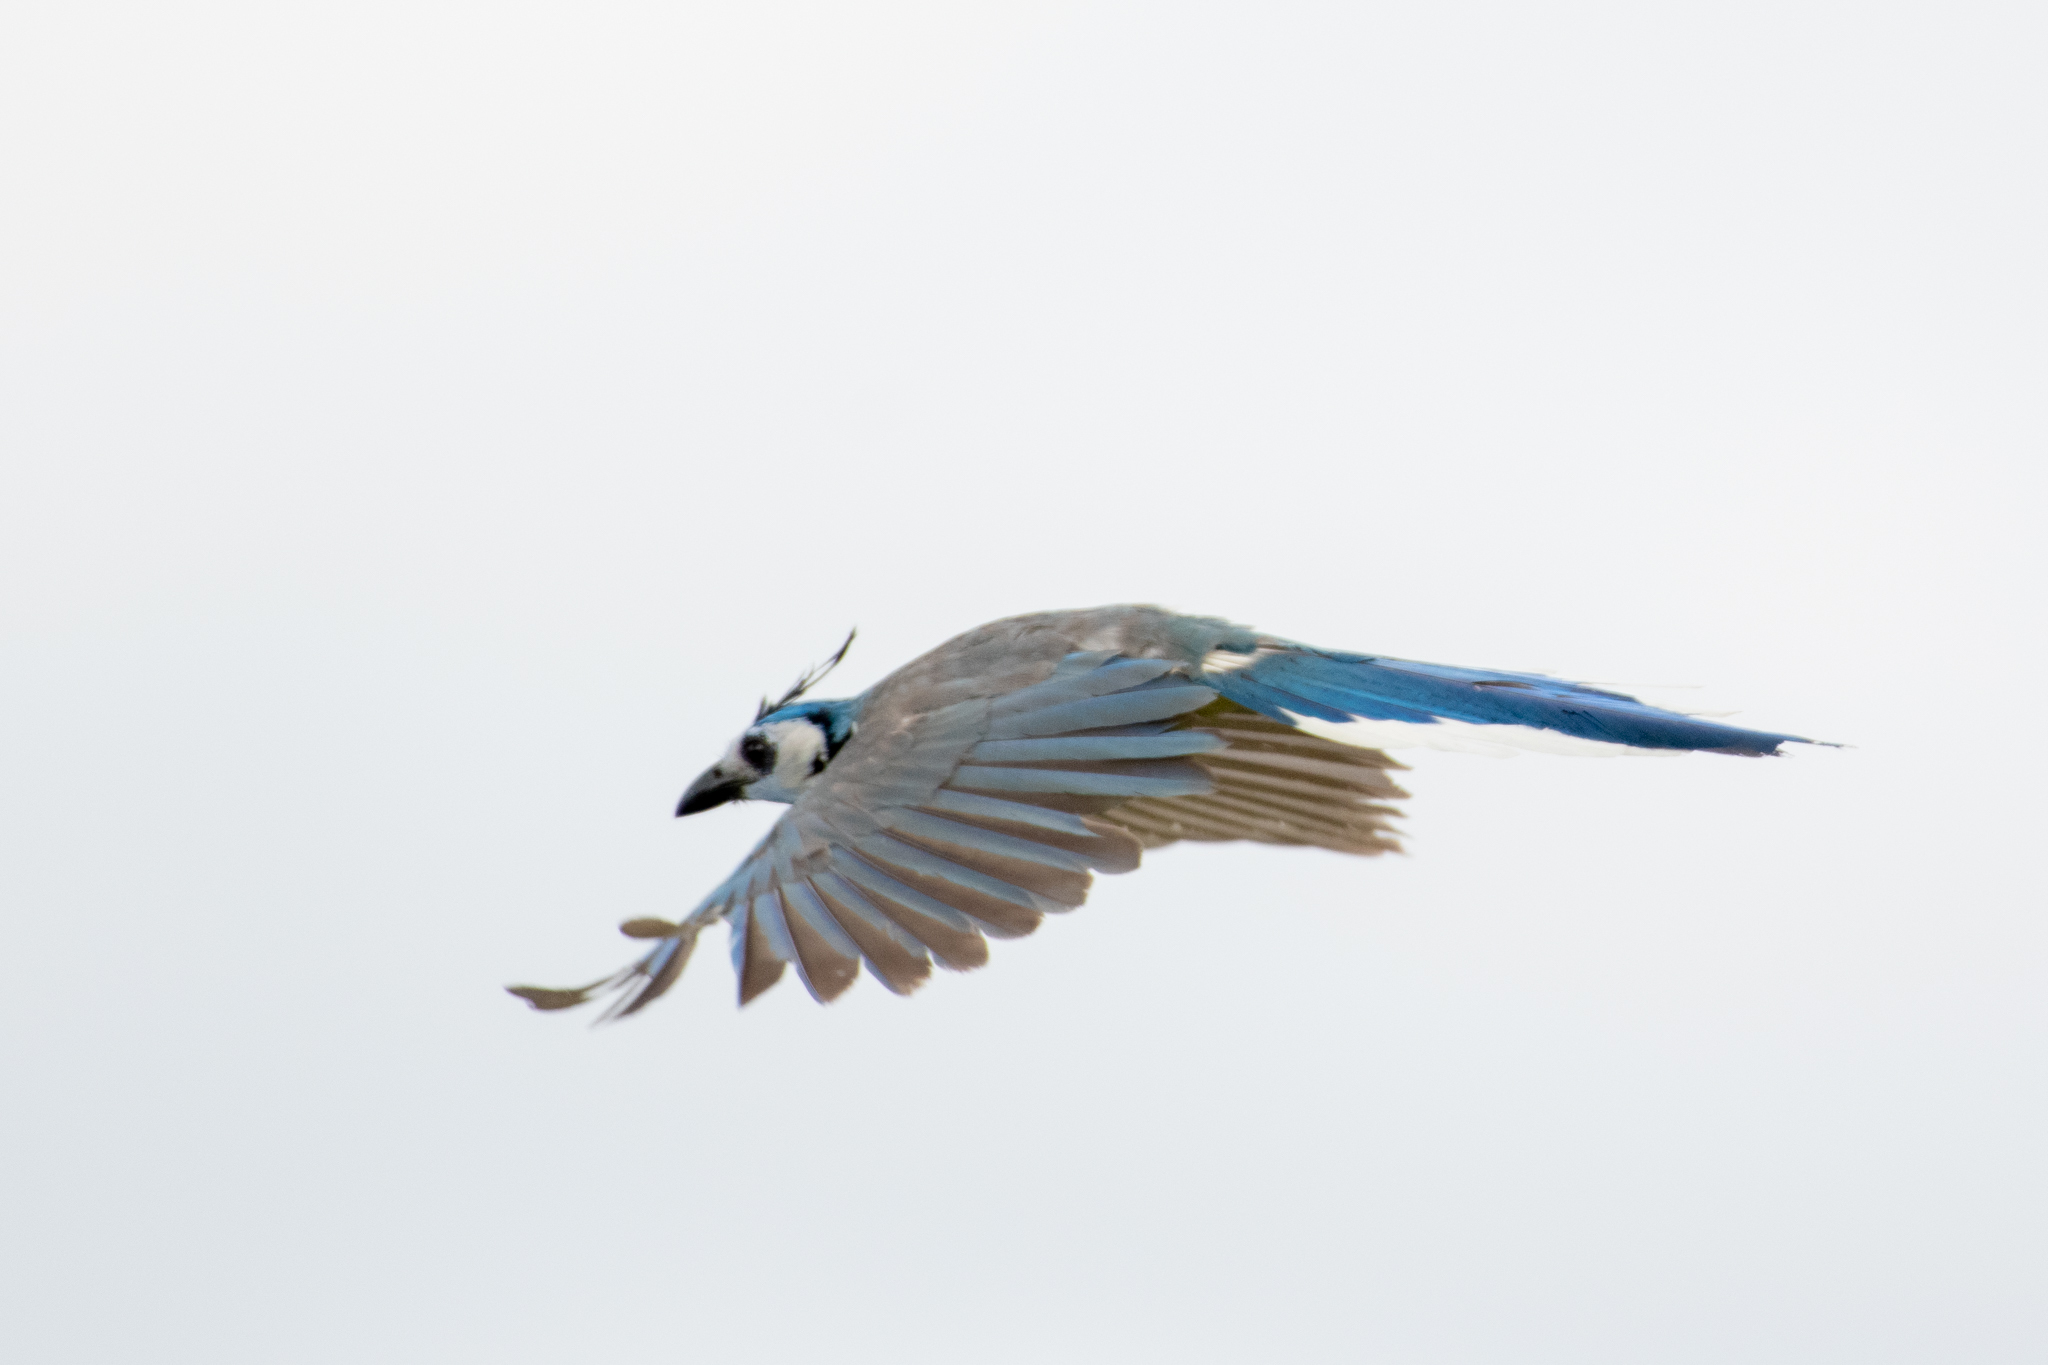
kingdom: Animalia
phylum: Chordata
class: Aves
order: Passeriformes
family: Corvidae
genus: Calocitta
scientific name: Calocitta formosa
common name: White-throated magpie-jay
